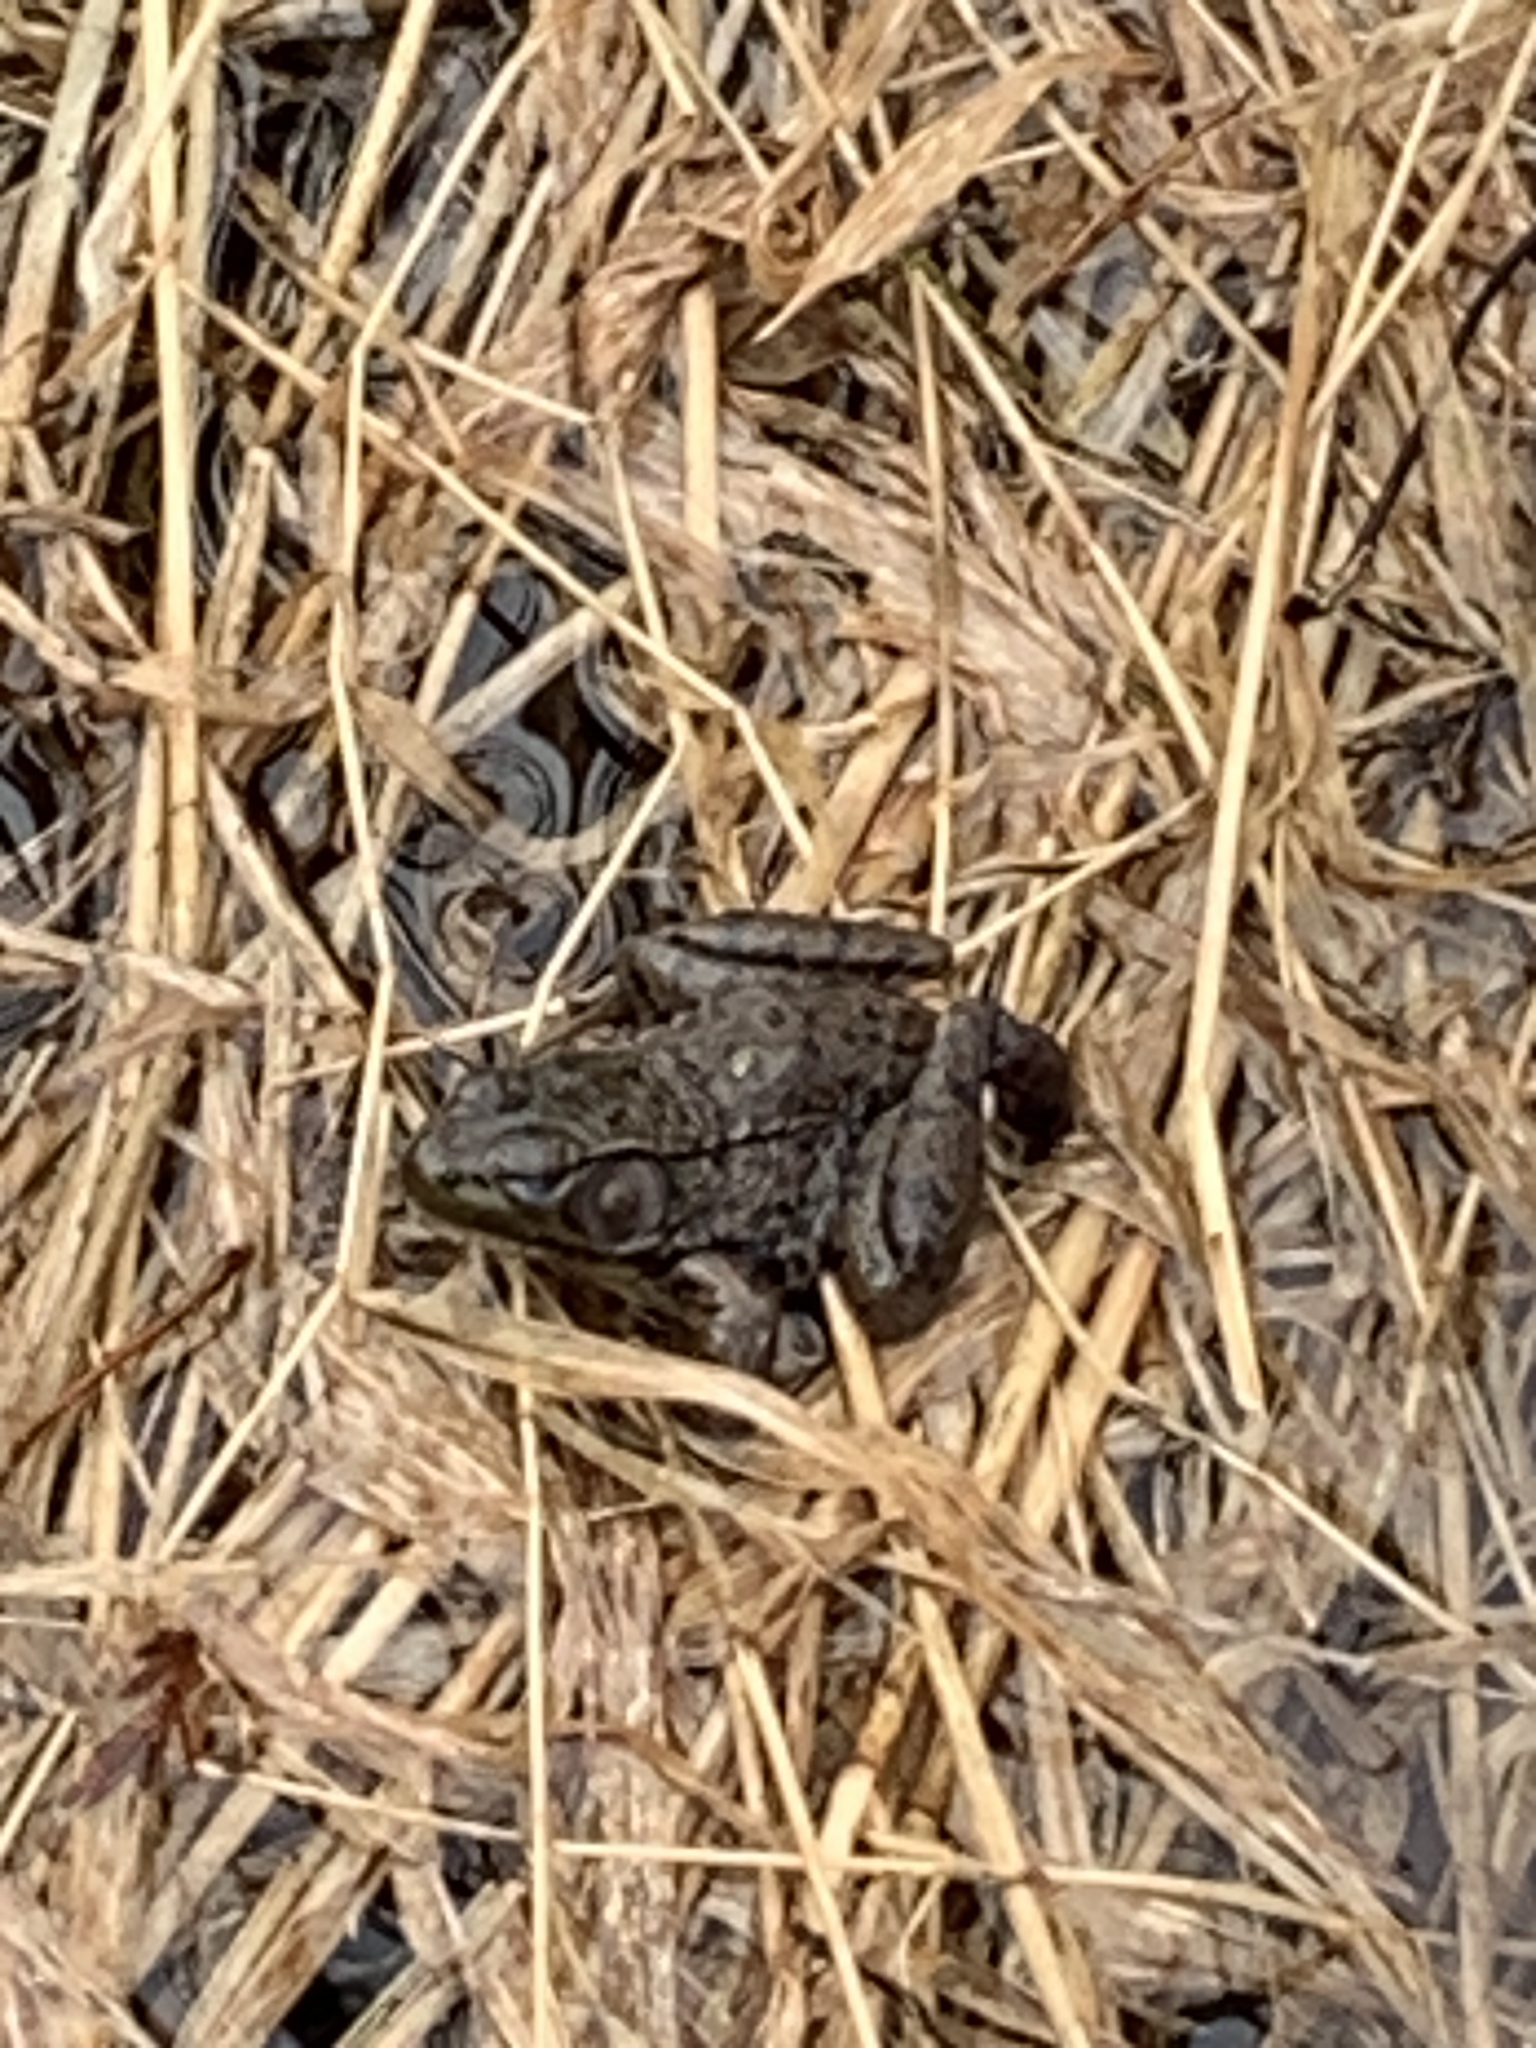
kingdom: Animalia
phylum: Chordata
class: Amphibia
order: Anura
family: Ranidae
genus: Lithobates
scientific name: Lithobates clamitans
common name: Green frog
